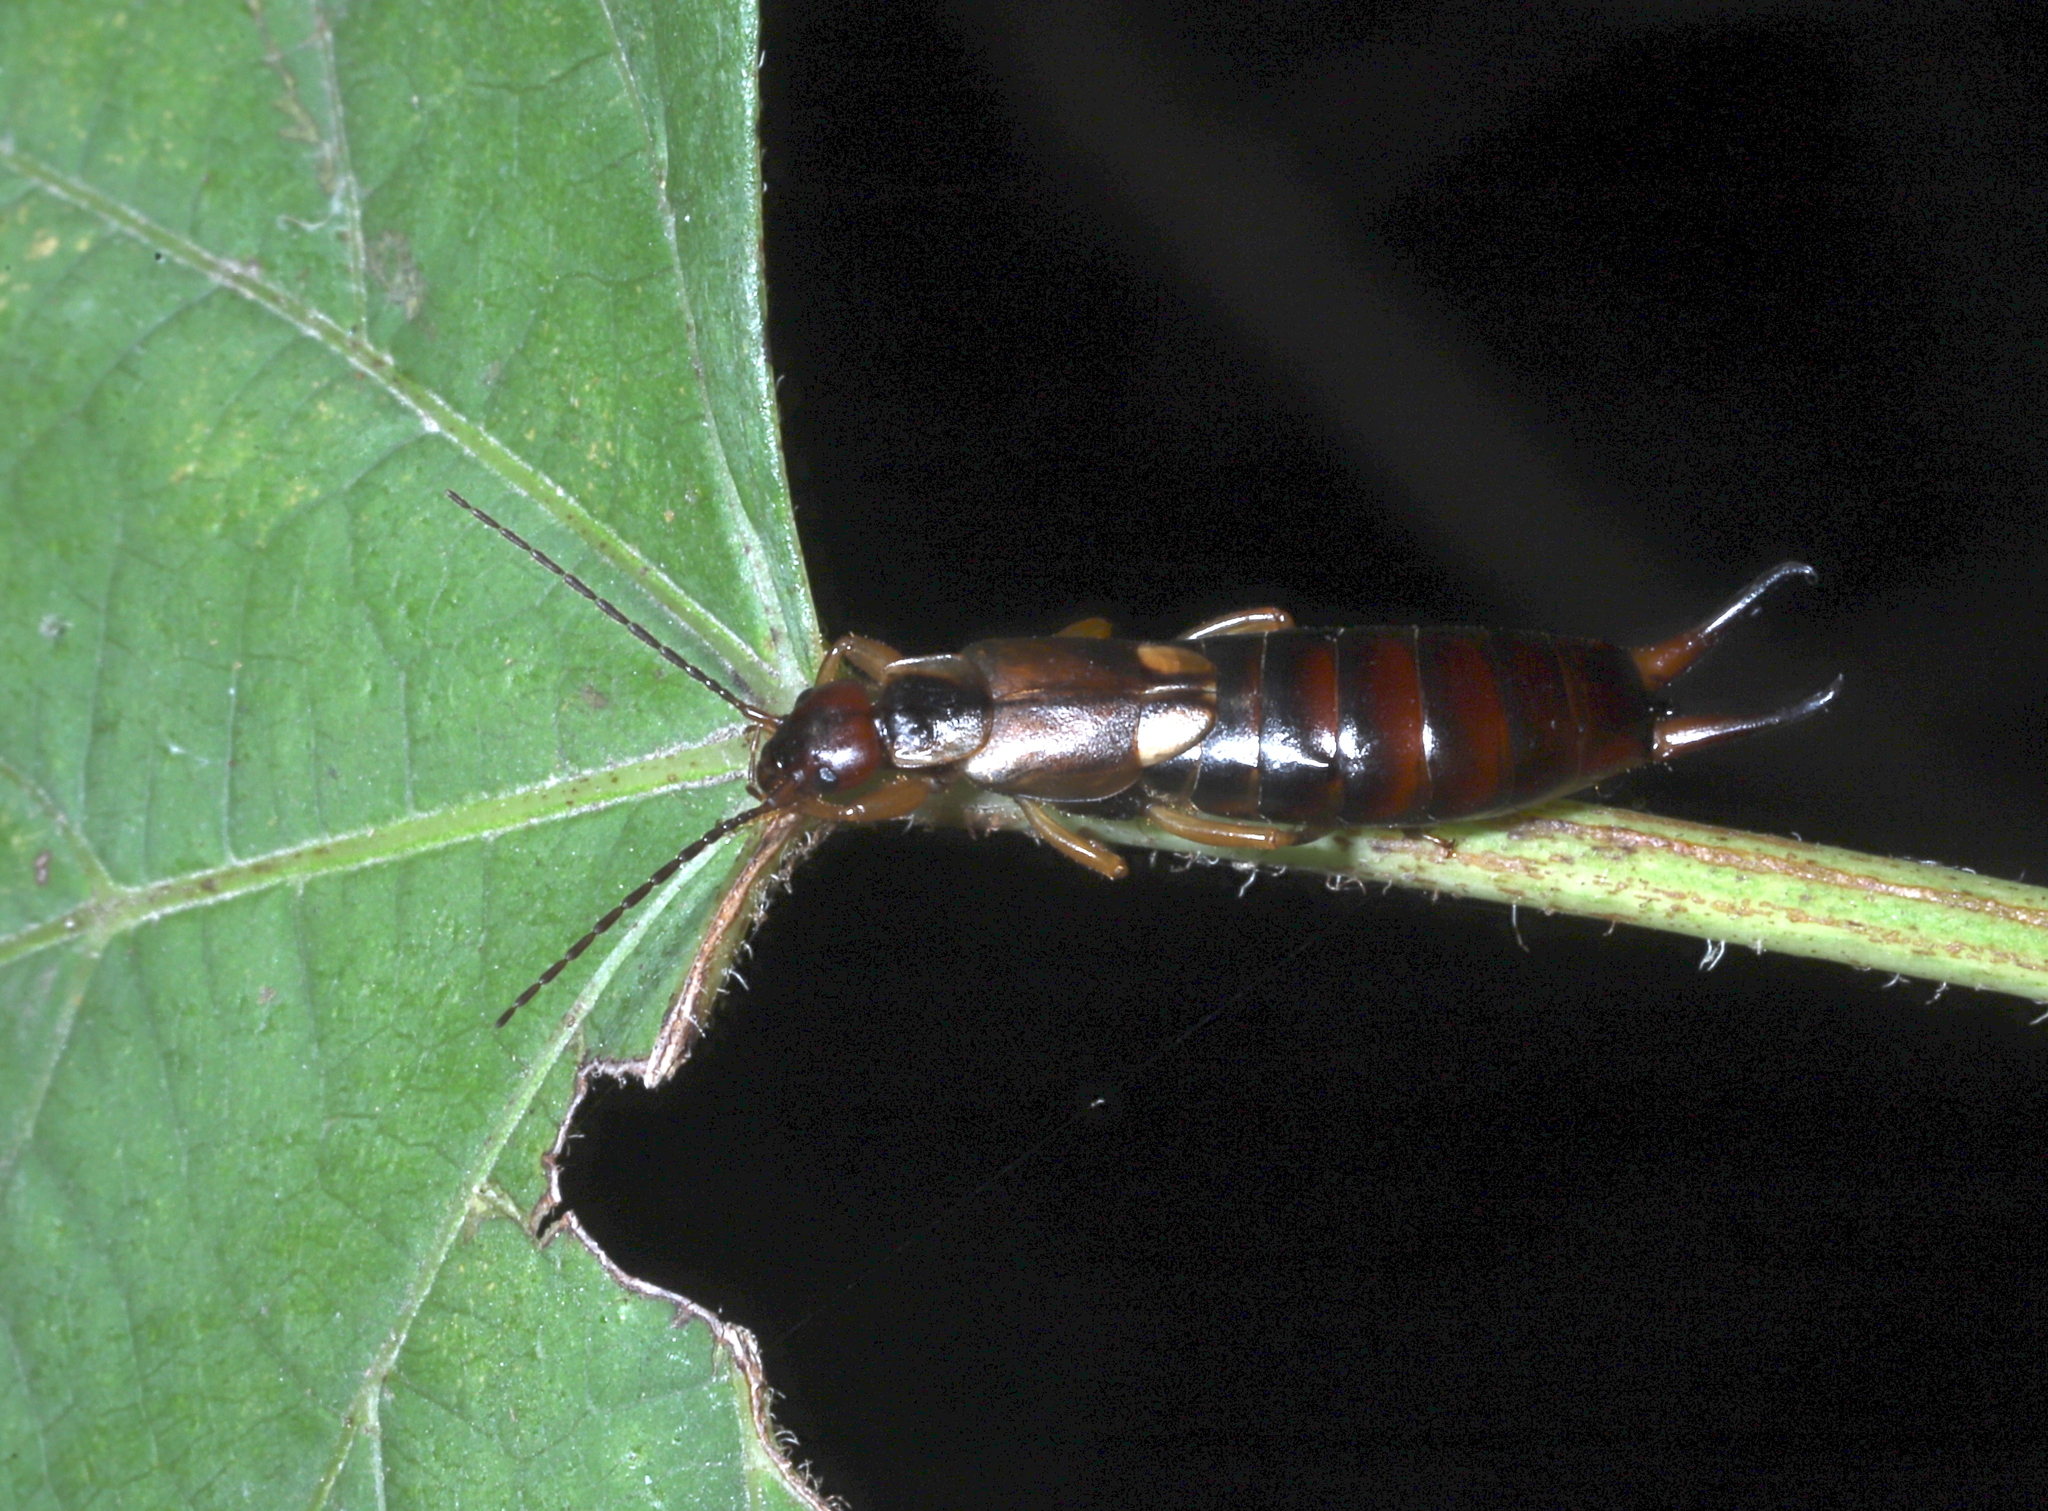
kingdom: Animalia
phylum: Arthropoda
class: Insecta
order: Dermaptera
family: Forficulidae
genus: Forficula
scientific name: Forficula
